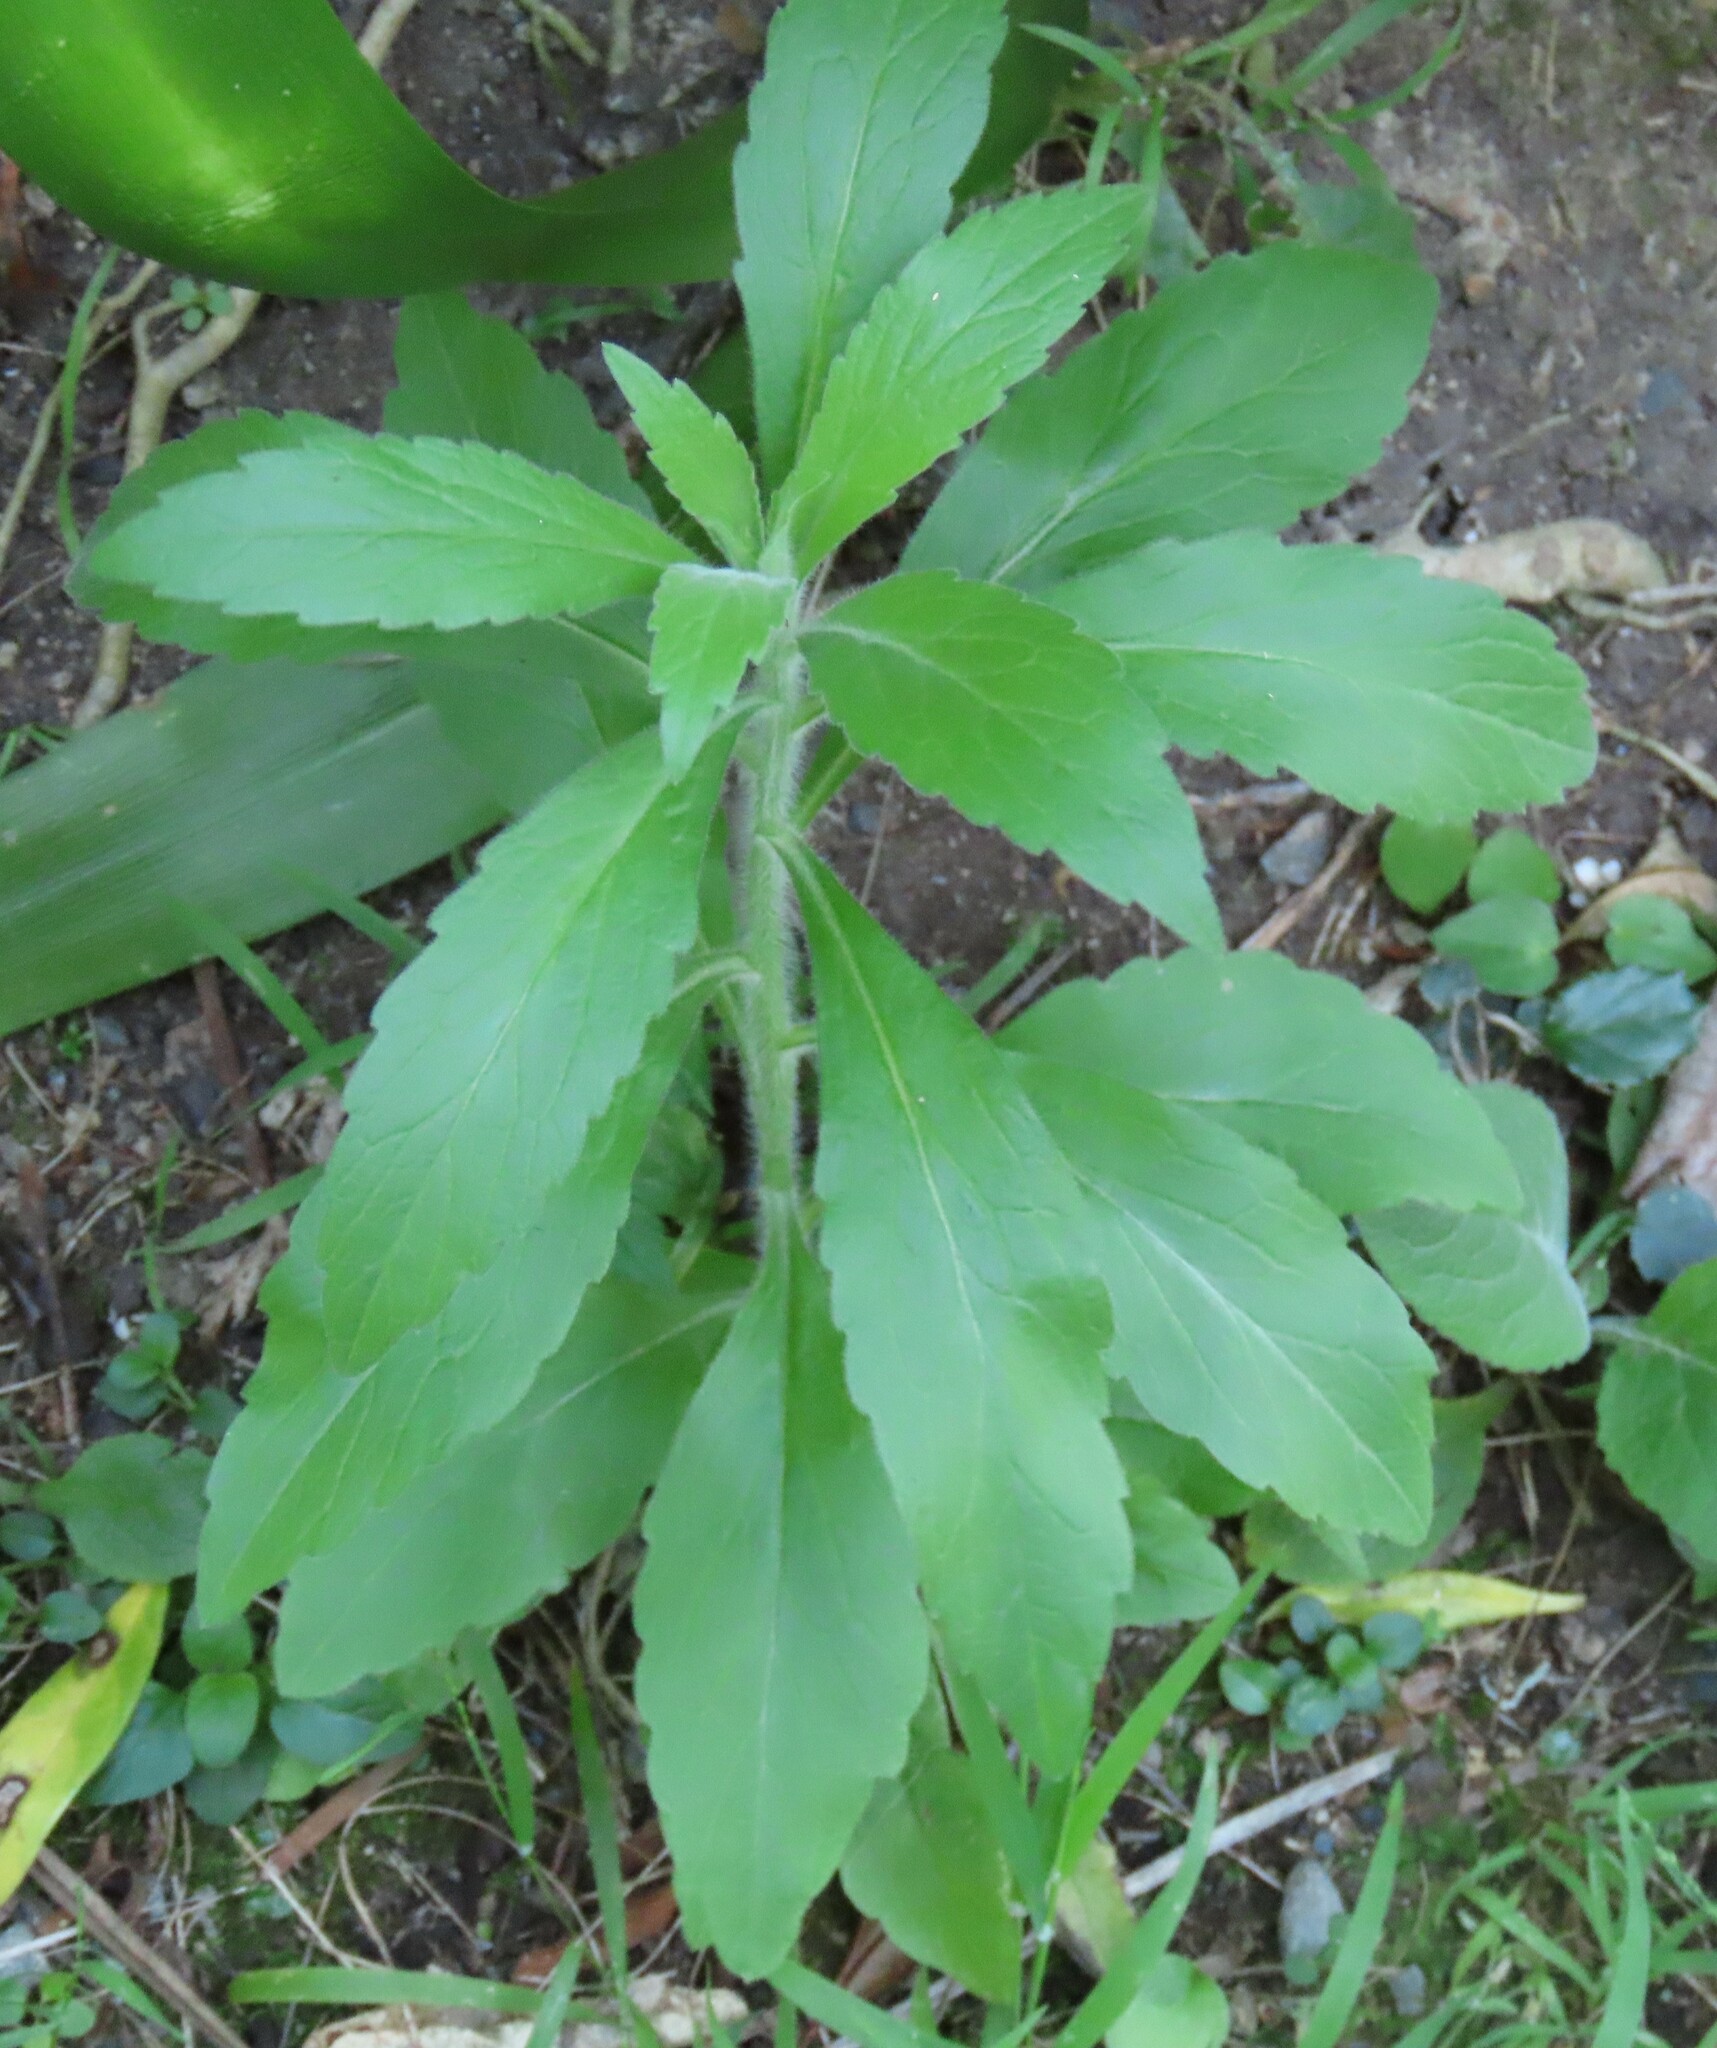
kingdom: Plantae
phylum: Tracheophyta
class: Magnoliopsida
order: Asterales
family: Asteraceae
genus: Erigeron
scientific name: Erigeron sumatrensis
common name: Daisy
